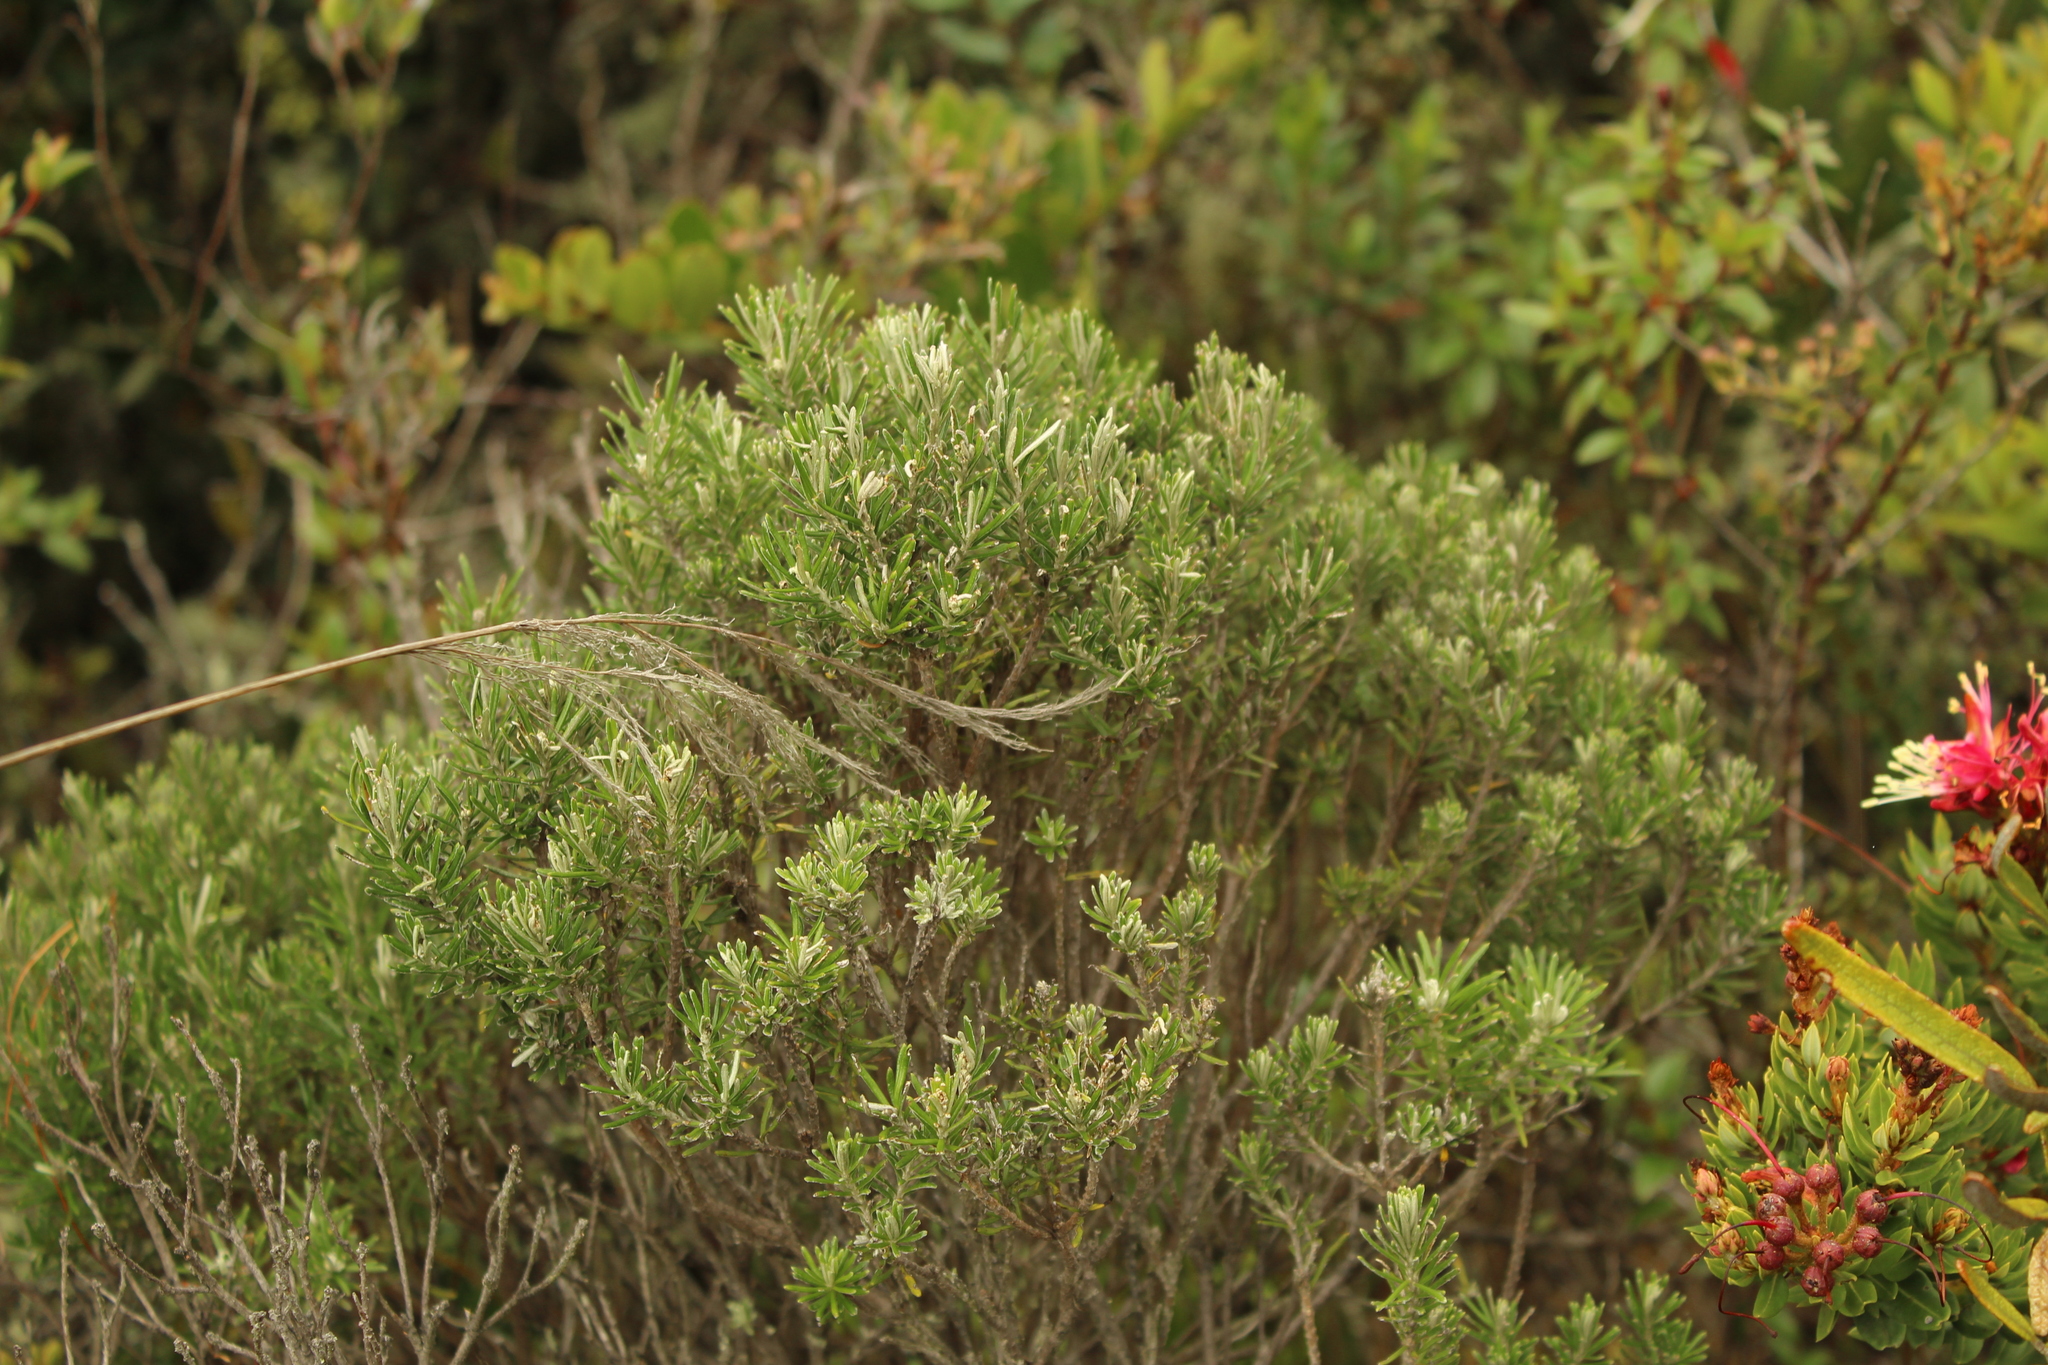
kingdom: Plantae
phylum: Tracheophyta
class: Magnoliopsida
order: Asterales
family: Asteraceae
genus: Linochilus
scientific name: Linochilus rosmarinifolius
